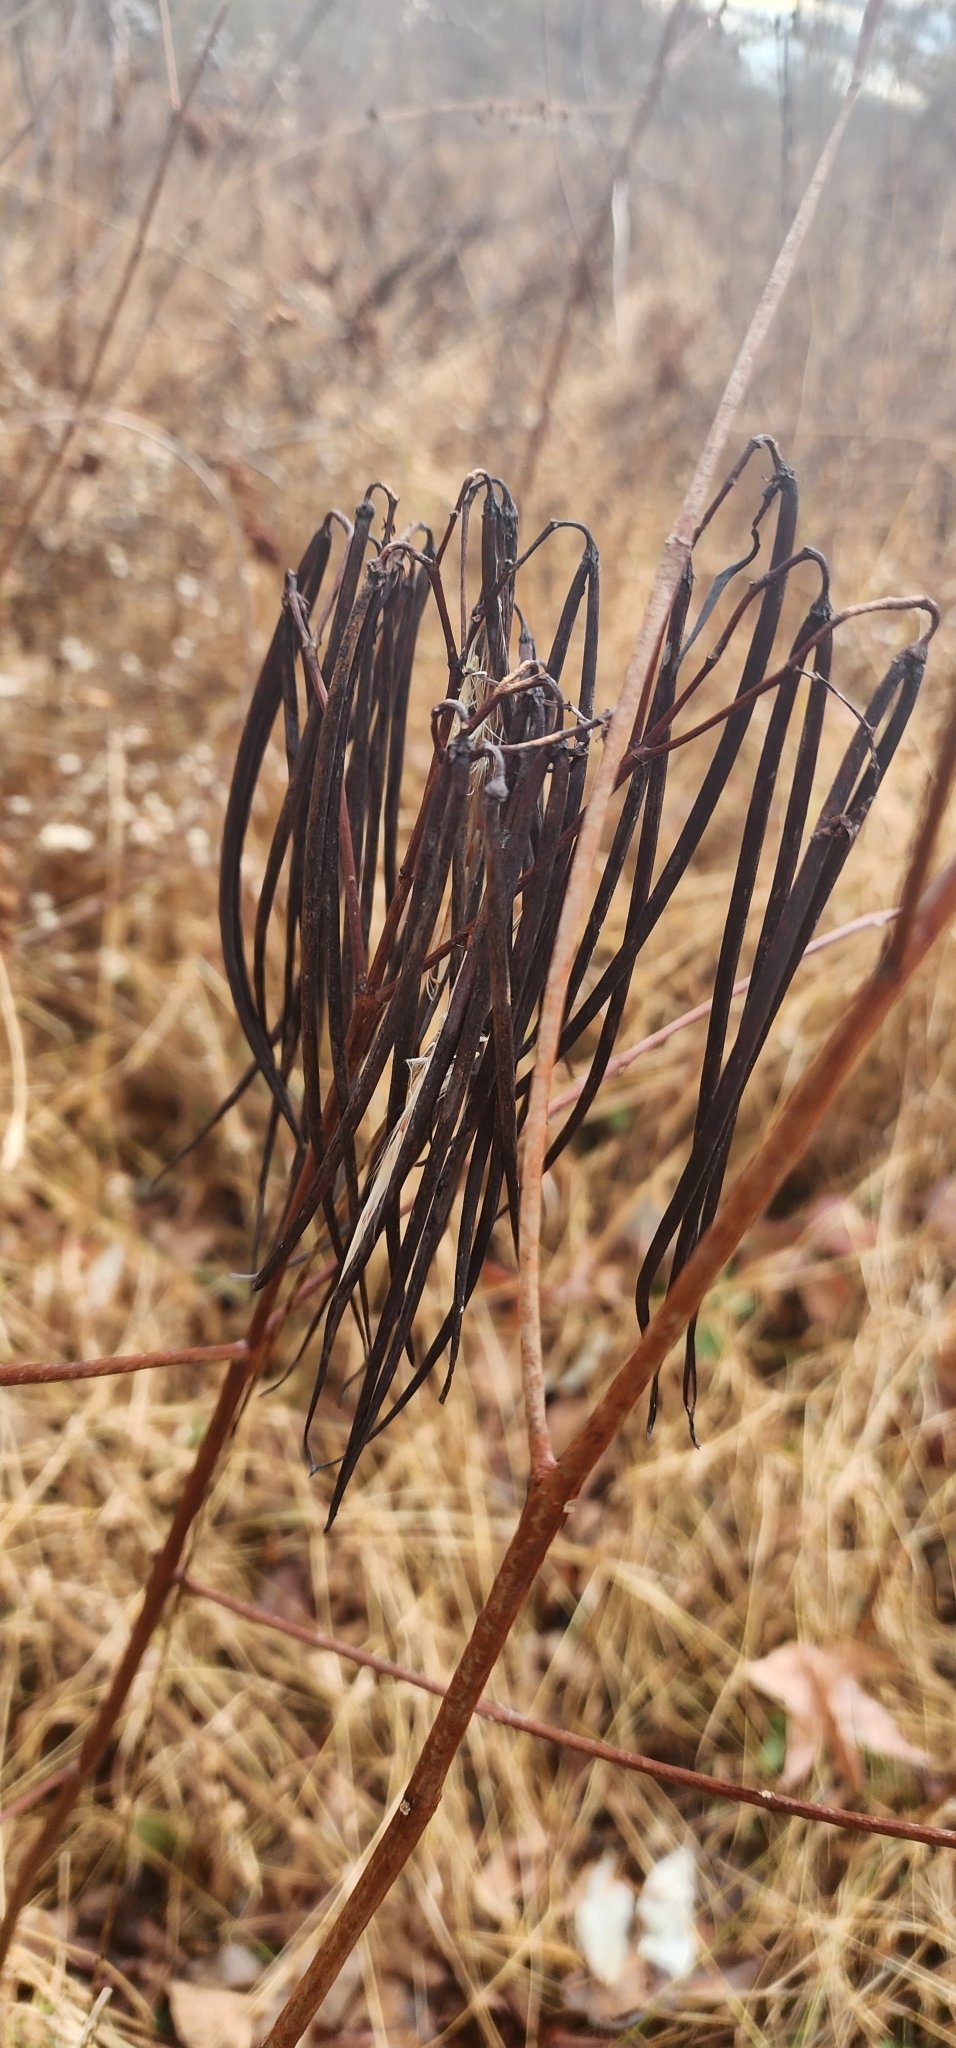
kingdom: Plantae
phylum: Tracheophyta
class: Magnoliopsida
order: Gentianales
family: Apocynaceae
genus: Apocynum
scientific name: Apocynum cannabinum
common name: Hemp dogbane
